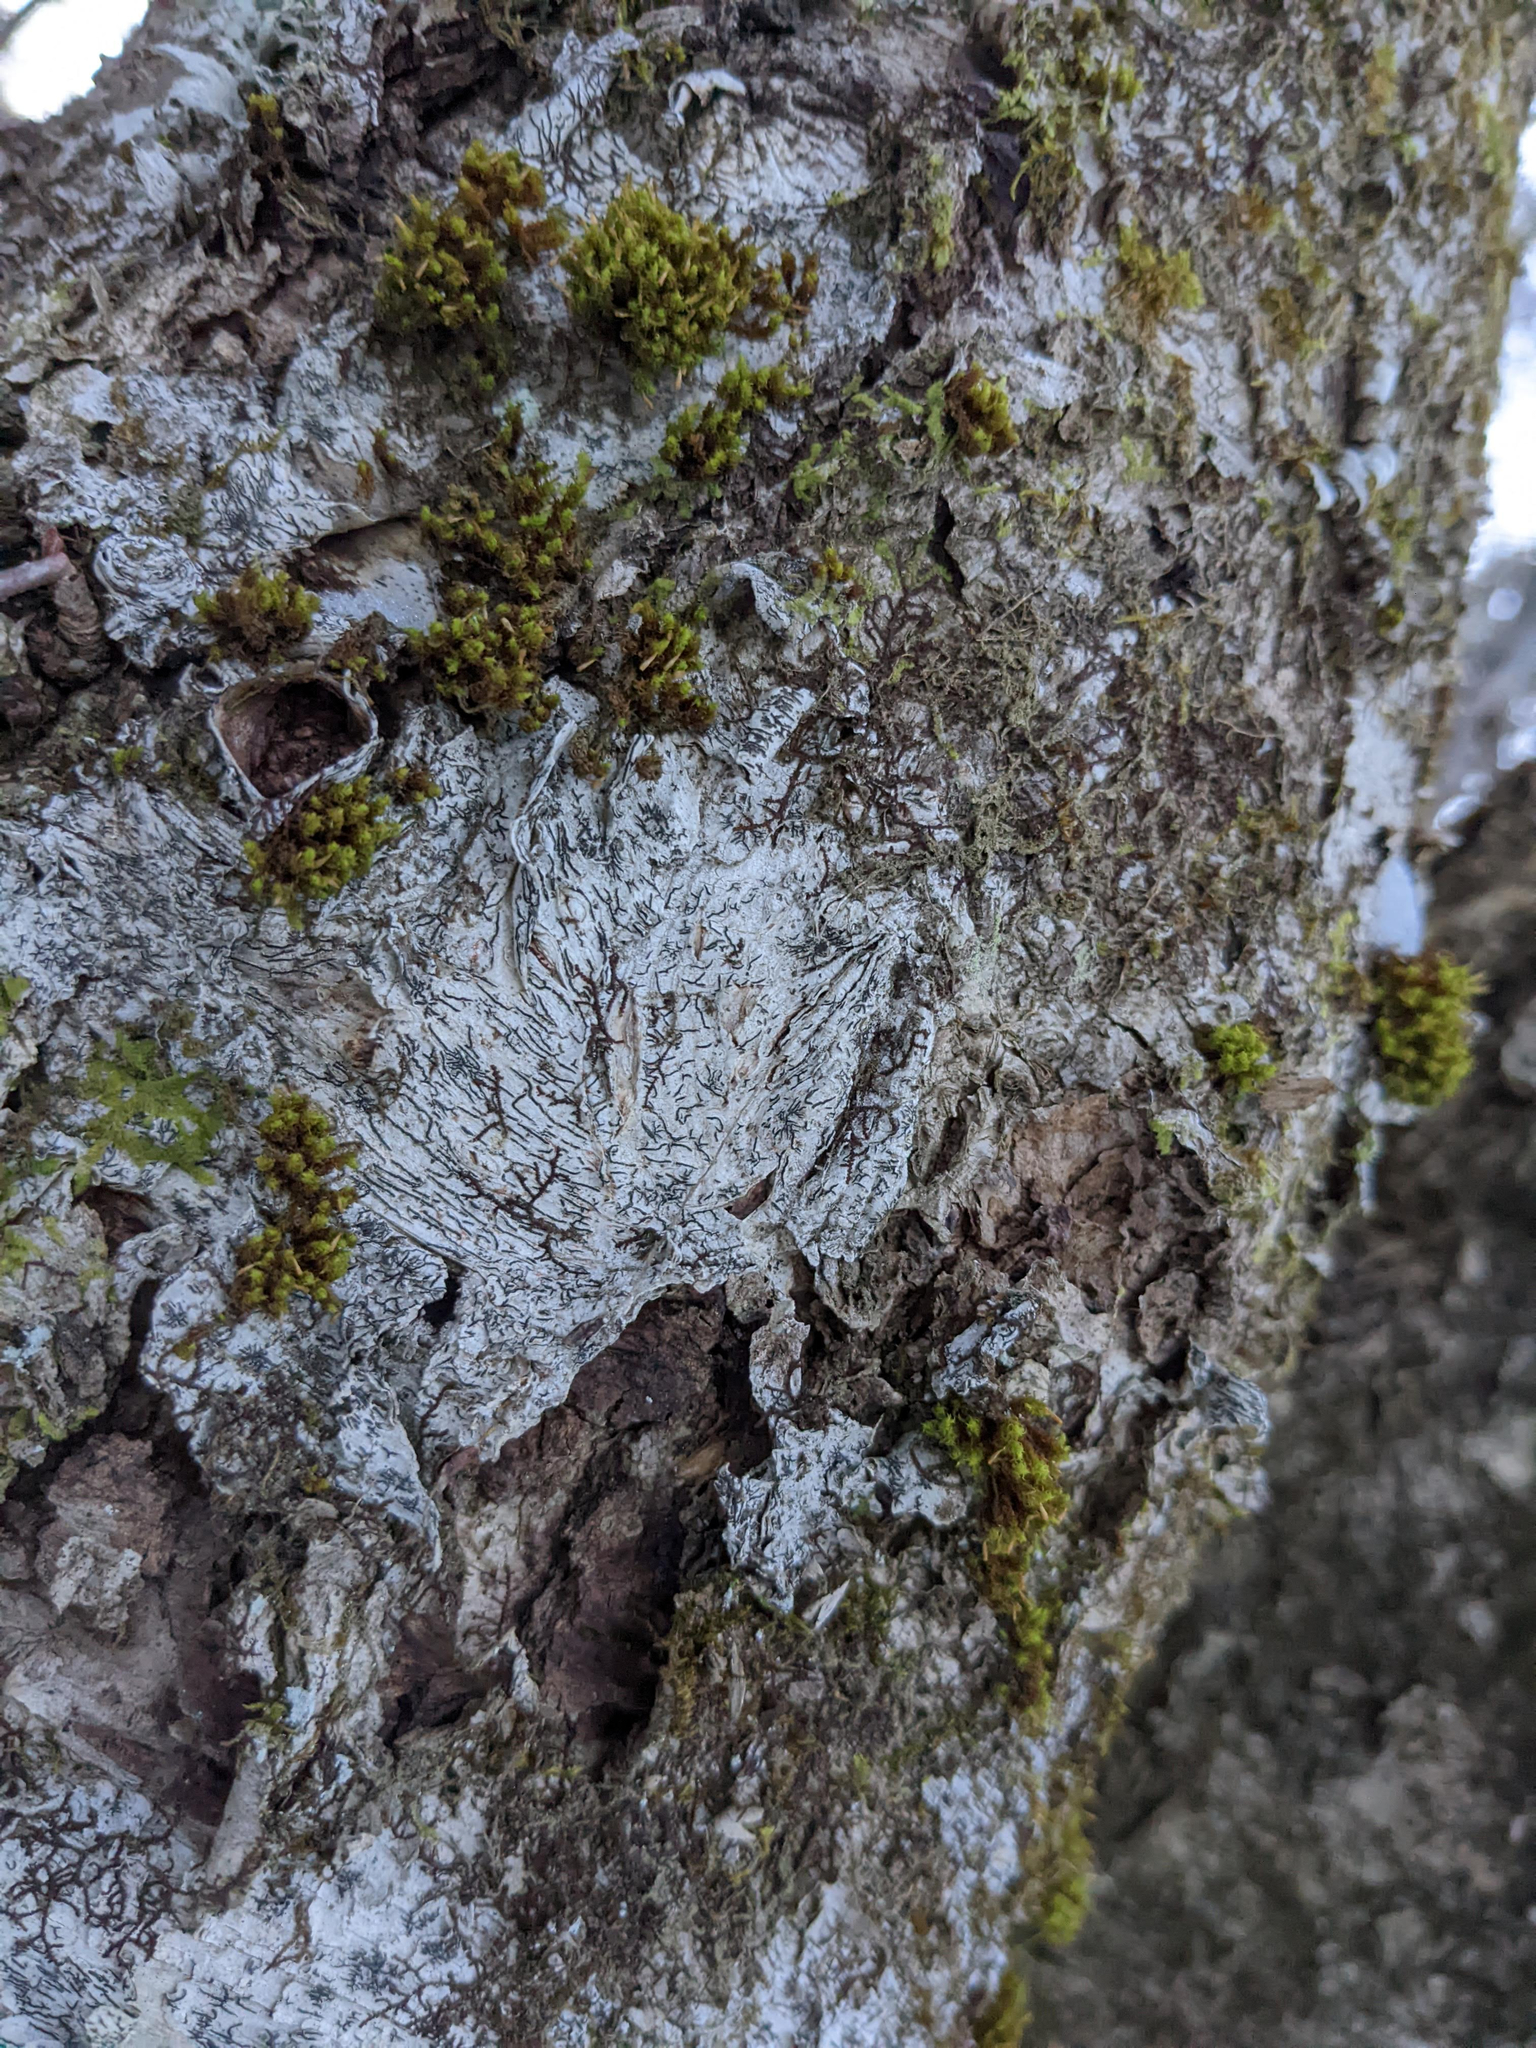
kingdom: Plantae
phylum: Bryophyta
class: Bryopsida
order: Orthotrichales
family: Orthotrichaceae
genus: Ulota
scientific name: Ulota crispa
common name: Crisped pincushion moss
